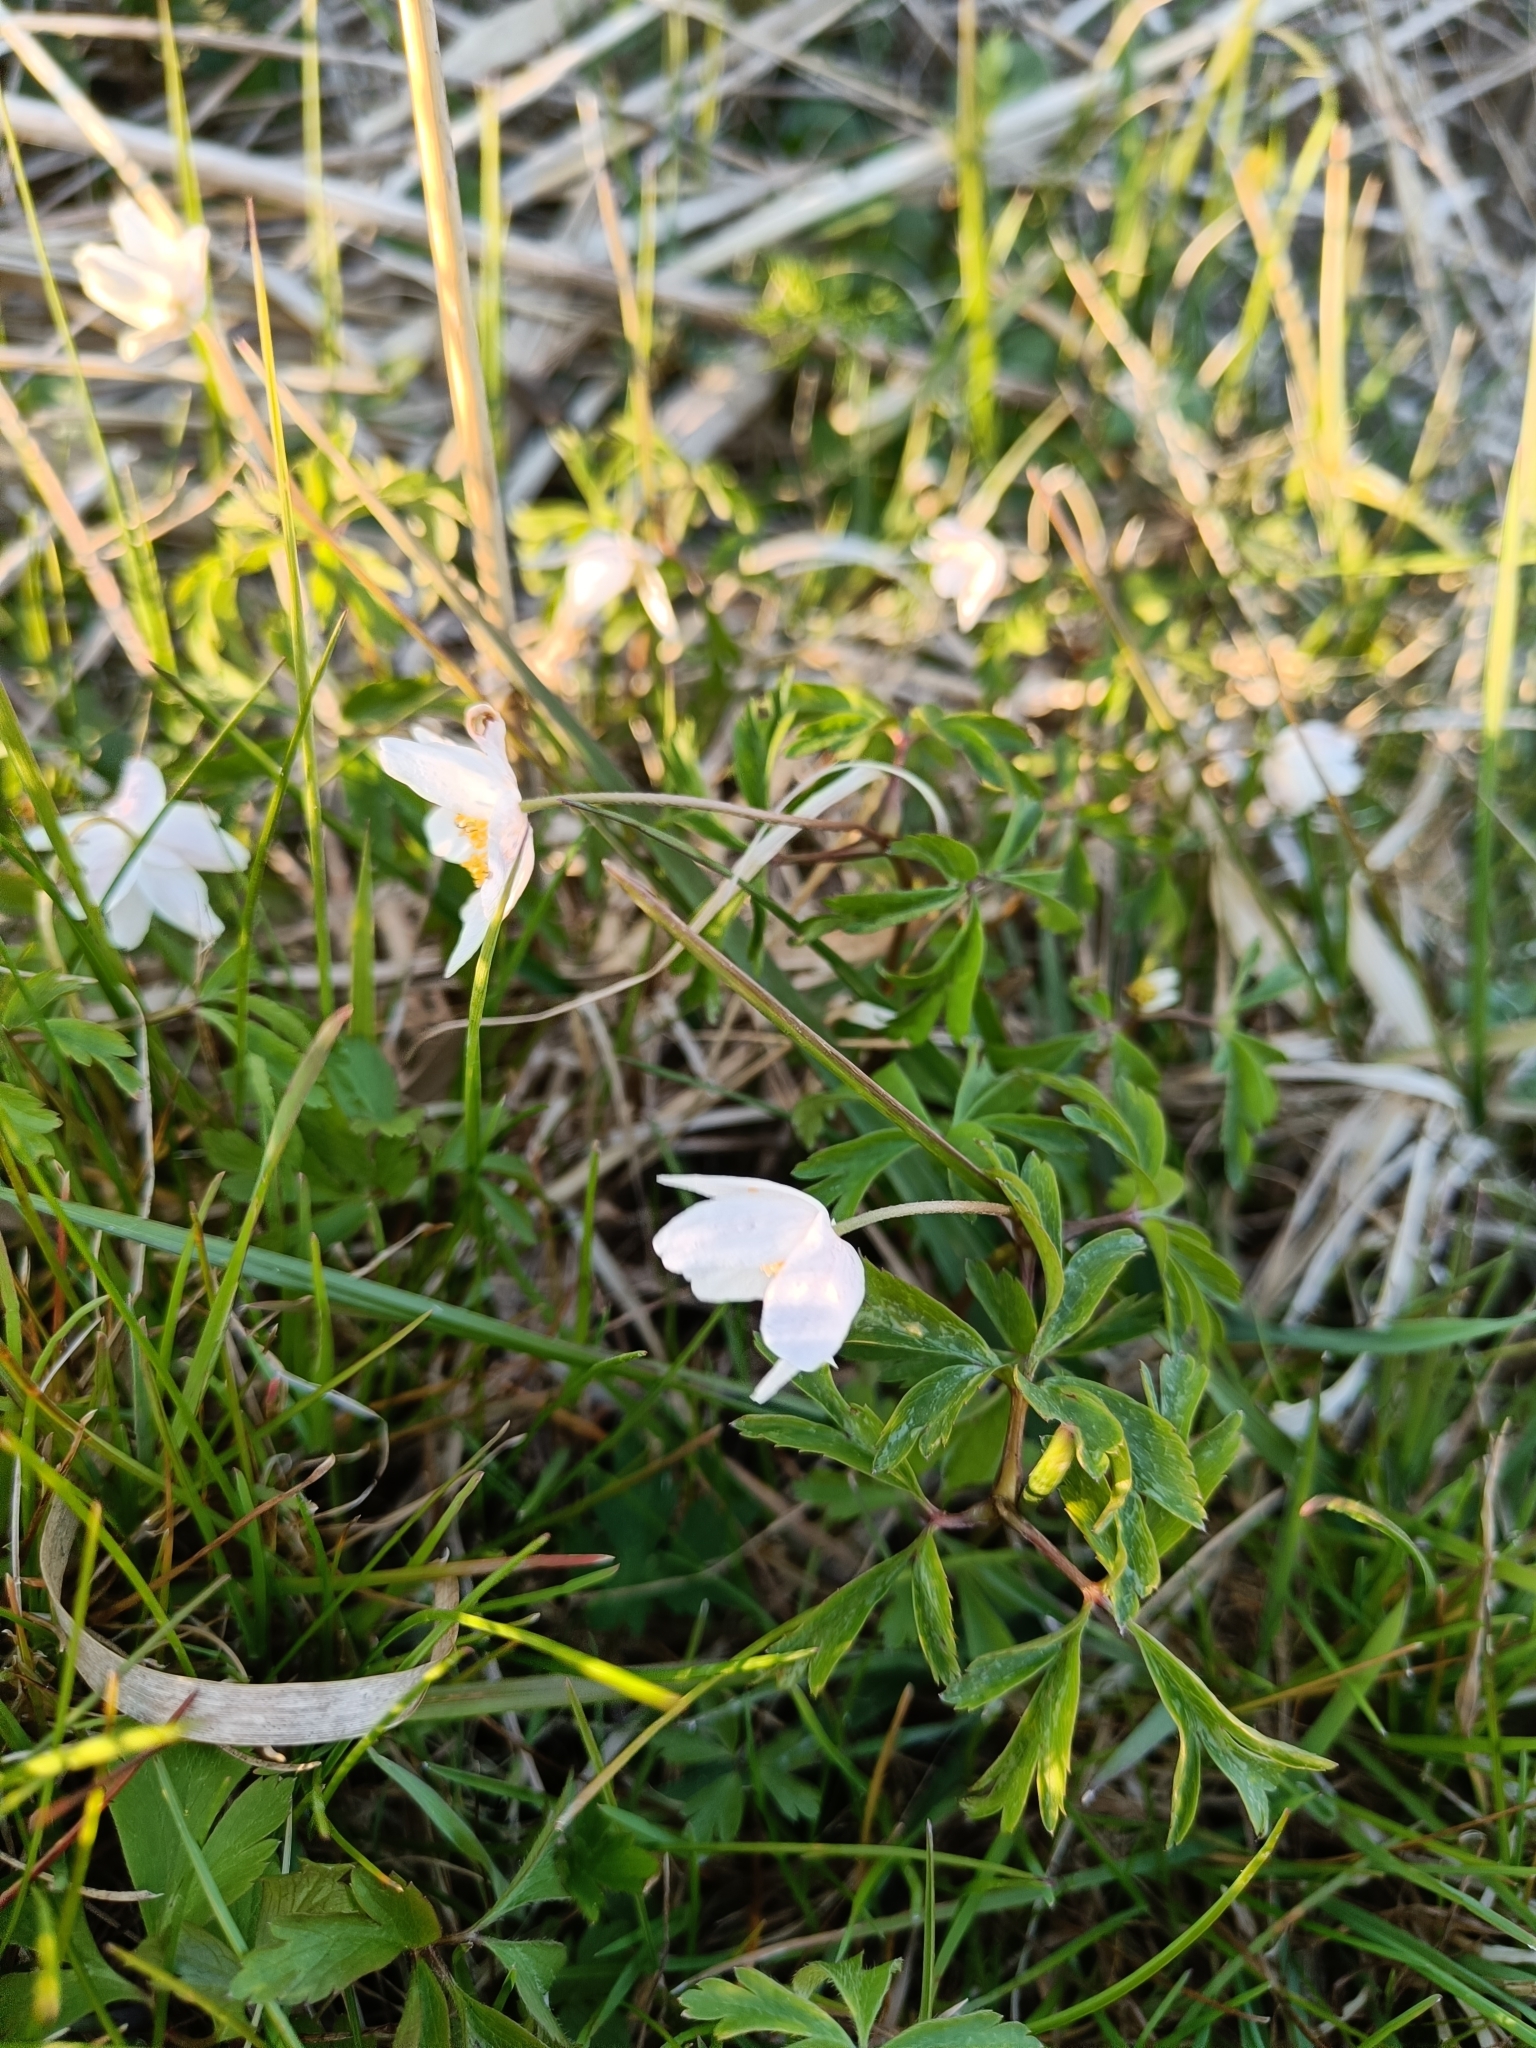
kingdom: Plantae
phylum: Tracheophyta
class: Magnoliopsida
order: Ranunculales
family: Ranunculaceae
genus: Anemone
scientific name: Anemone nemorosa
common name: Wood anemone
